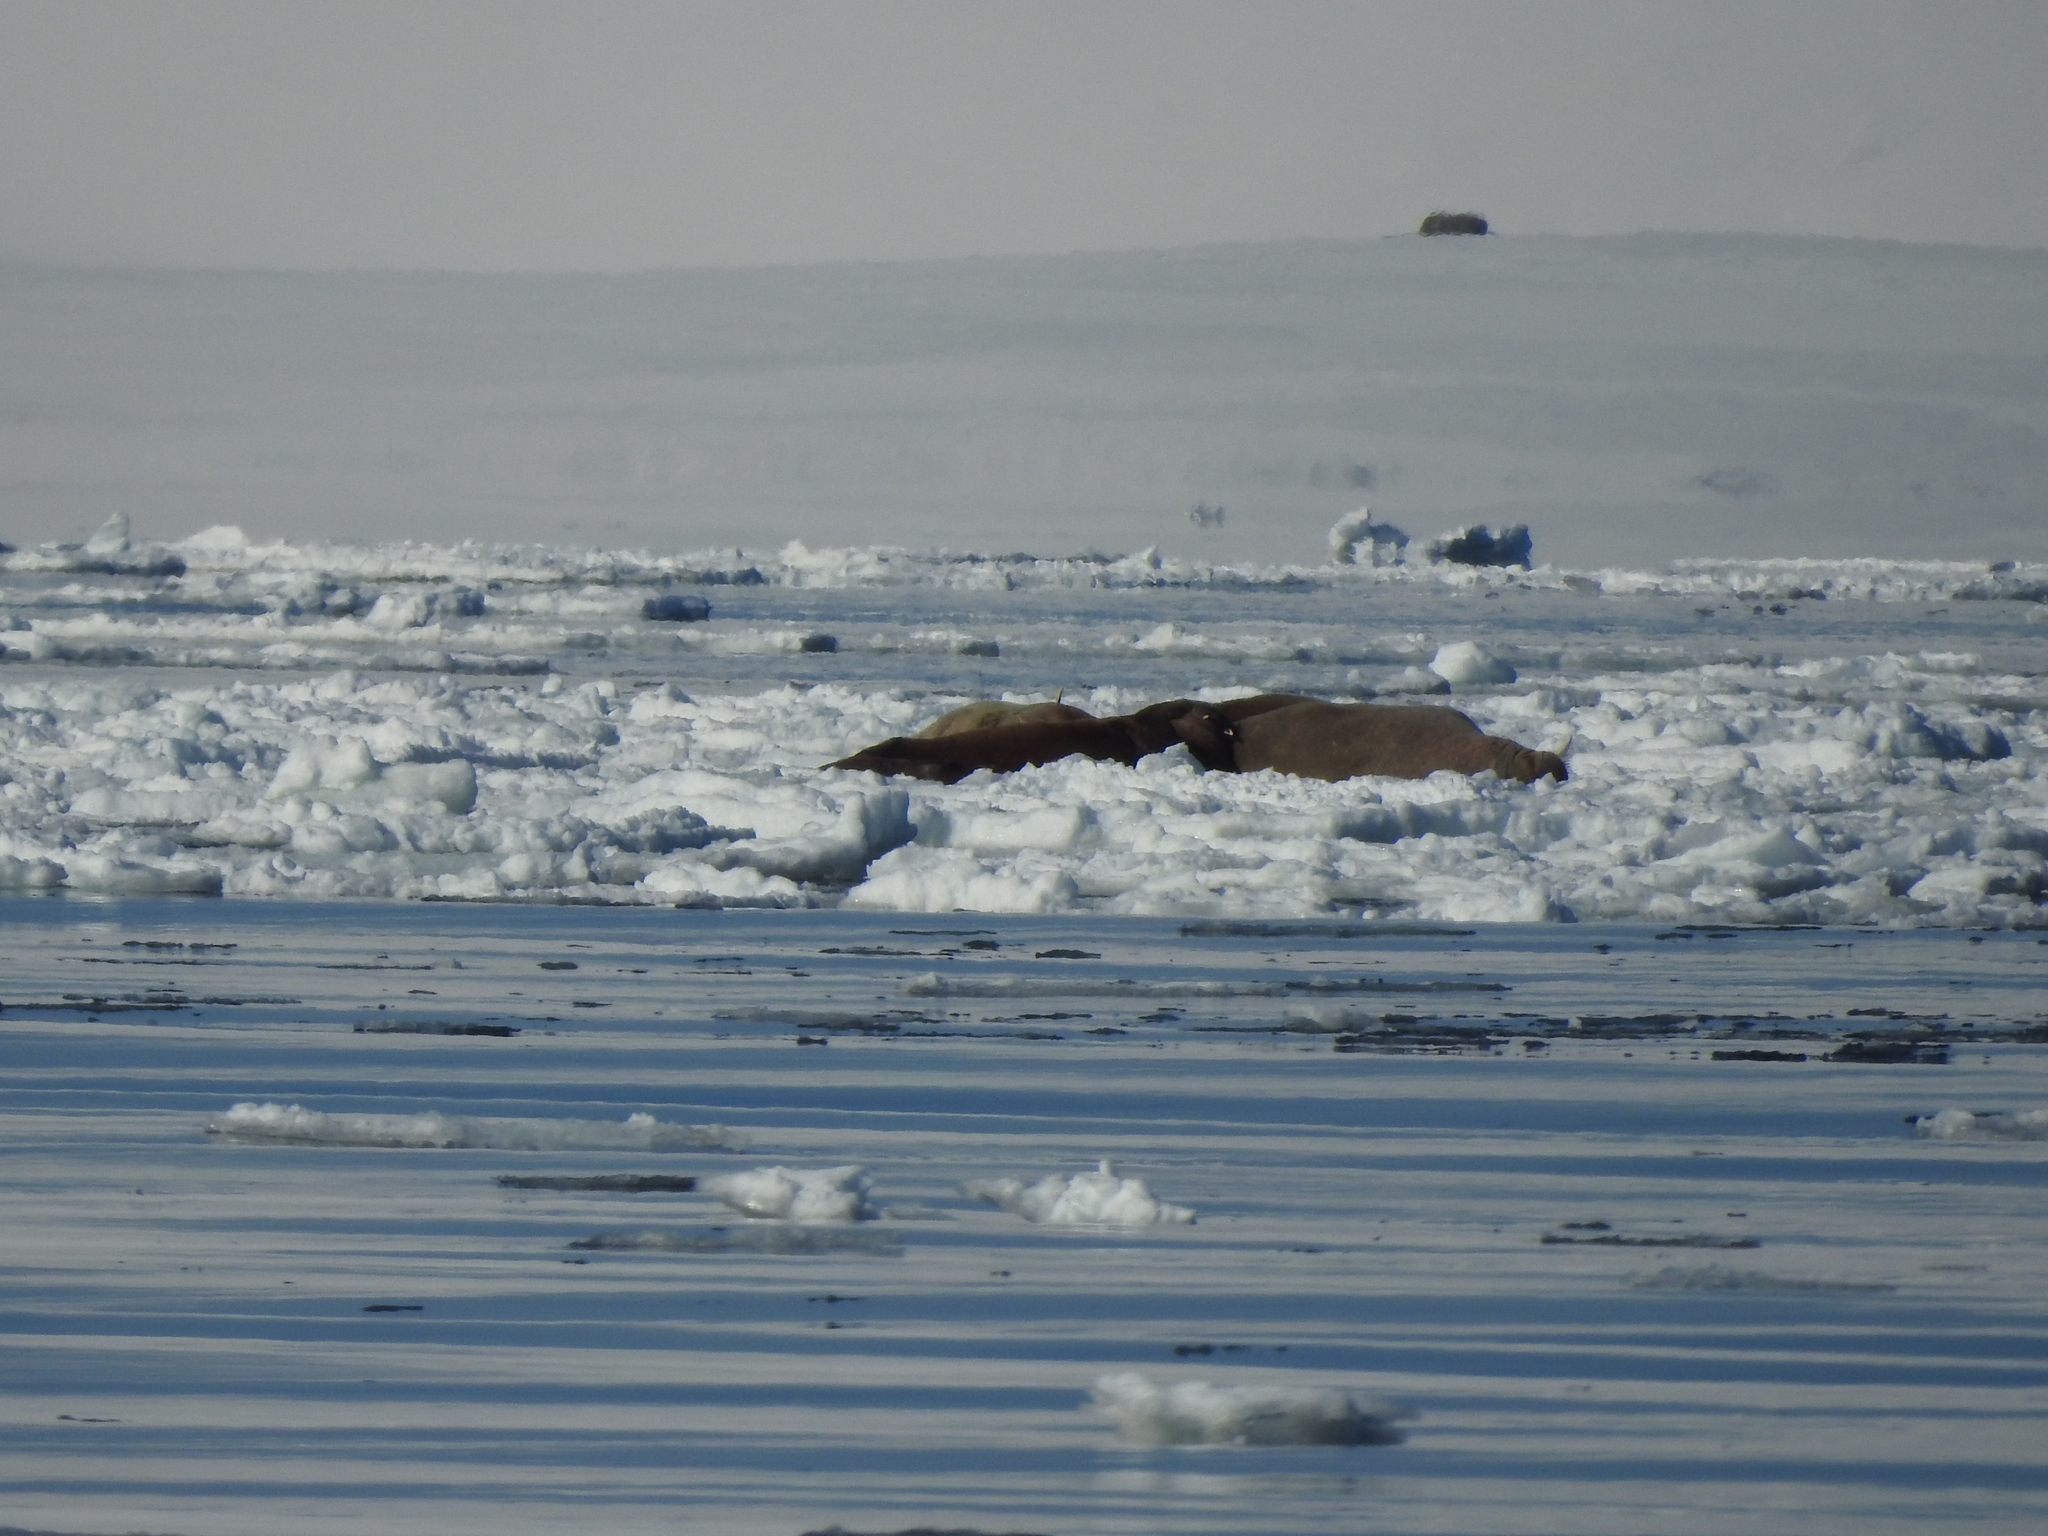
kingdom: Animalia
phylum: Chordata
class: Mammalia
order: Carnivora
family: Odobenidae
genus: Odobenus
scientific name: Odobenus rosmarus
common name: Walrus
